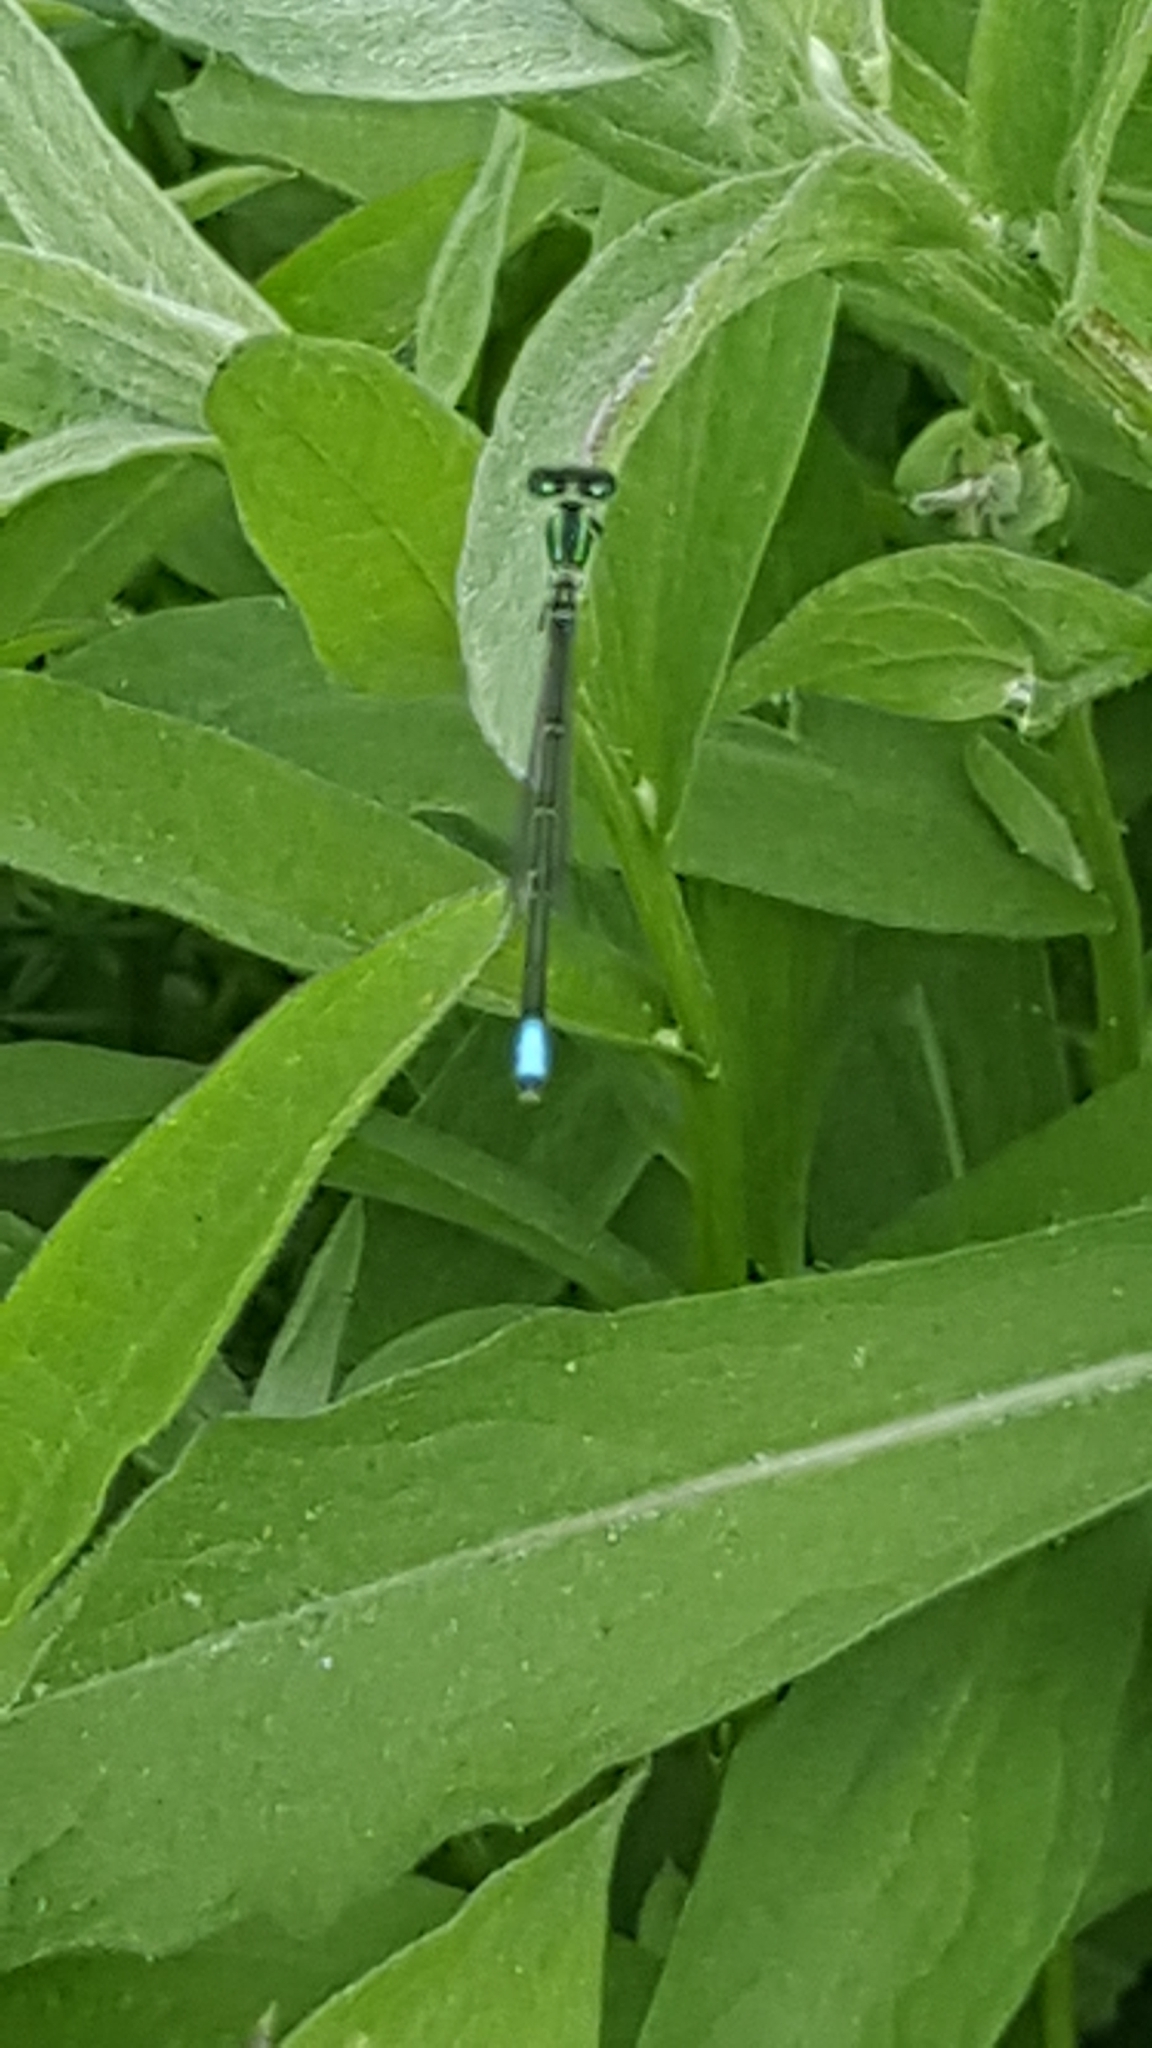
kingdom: Animalia
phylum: Arthropoda
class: Insecta
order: Odonata
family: Coenagrionidae
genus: Ischnura
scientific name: Ischnura verticalis
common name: Eastern forktail
